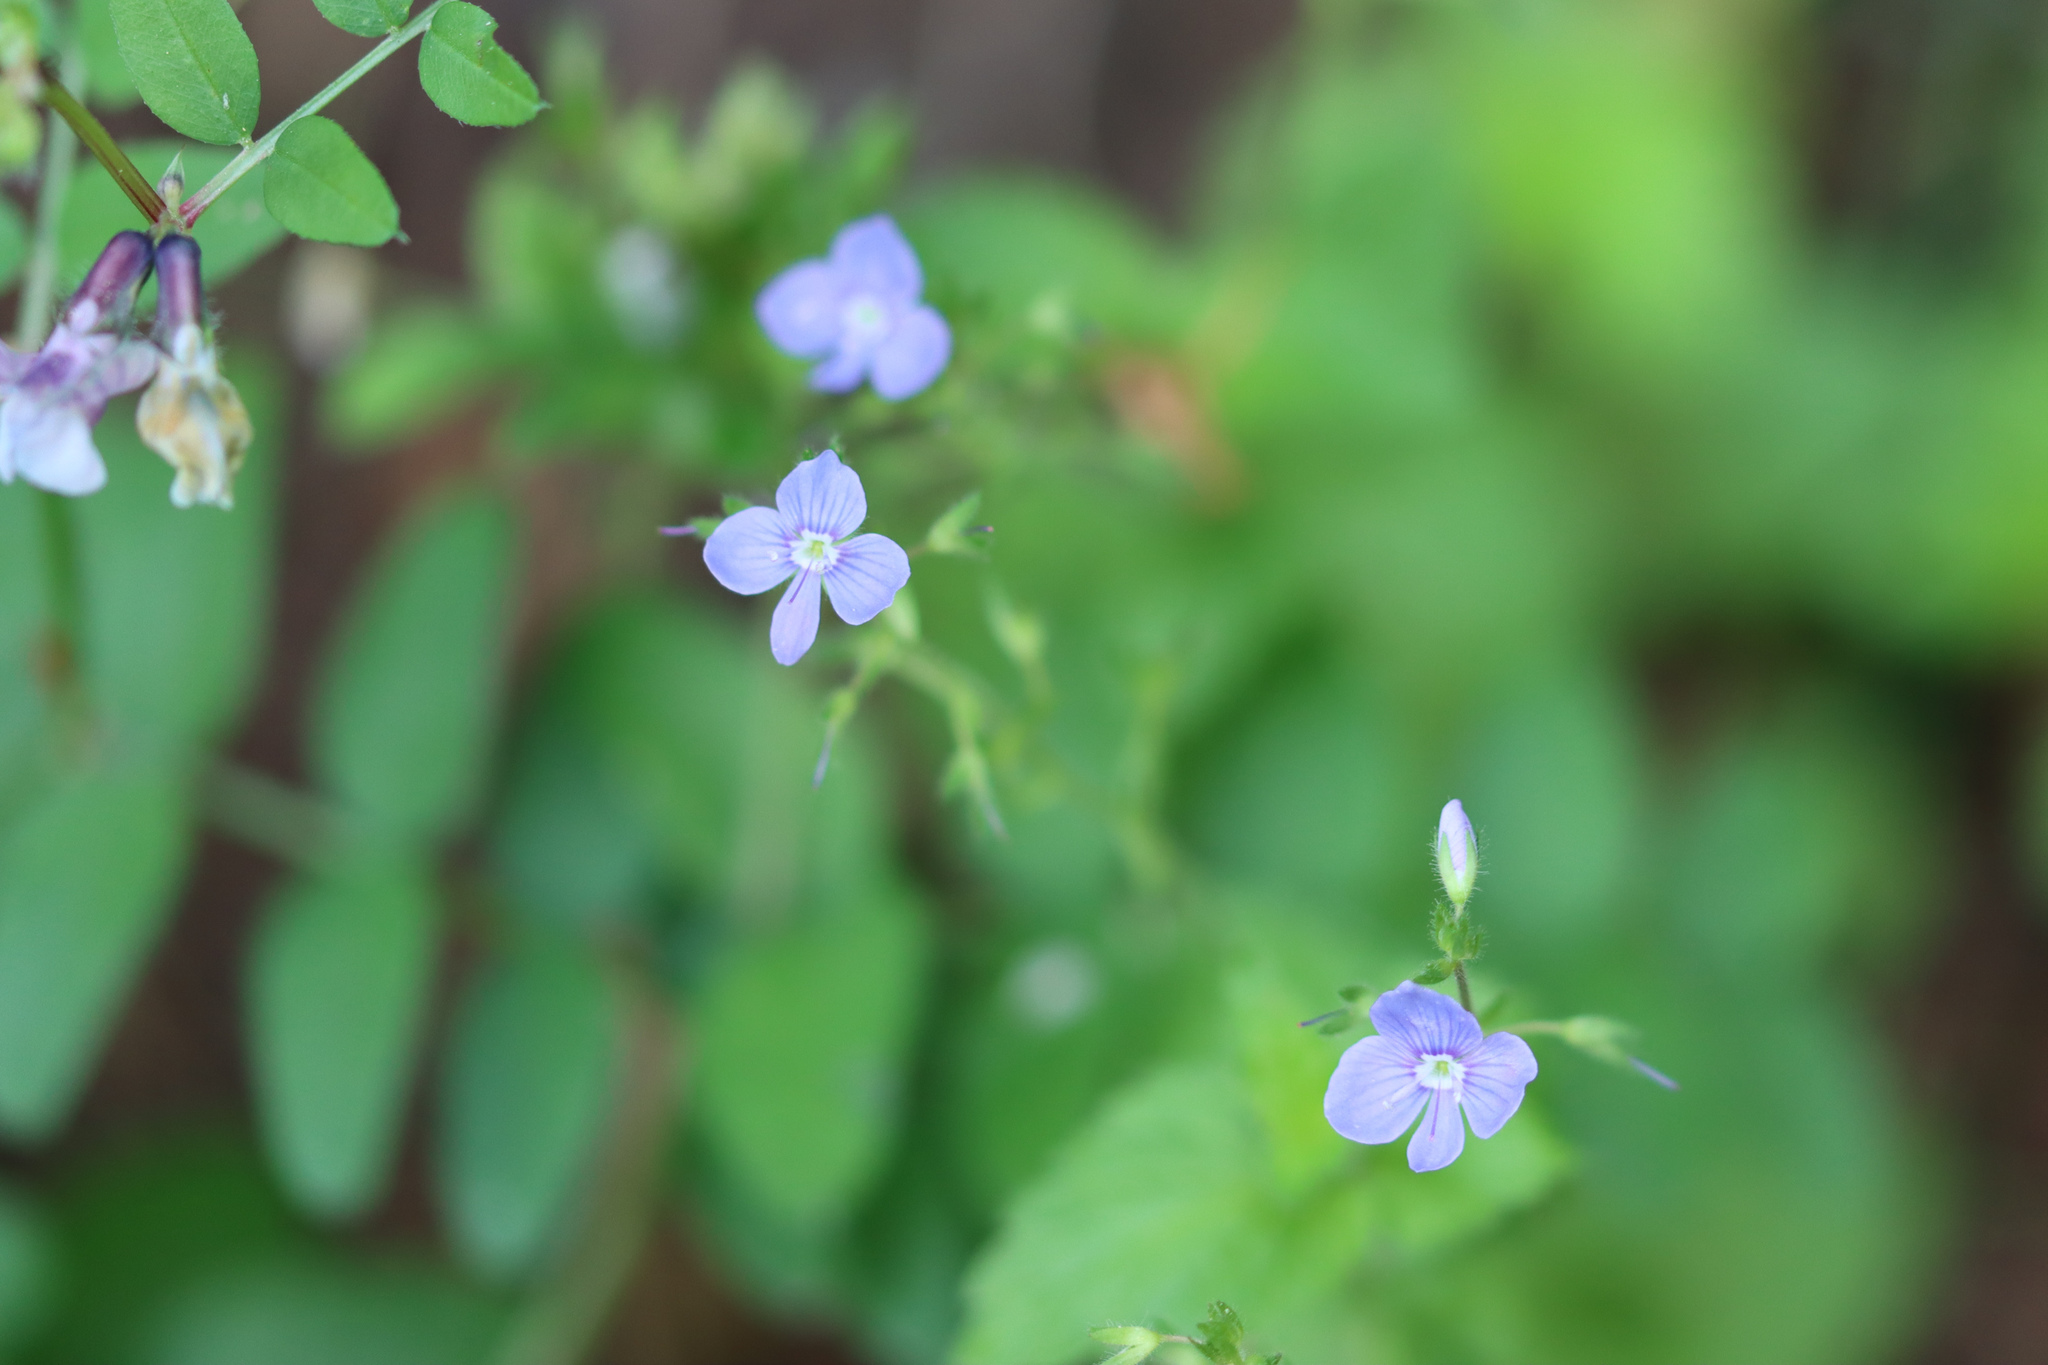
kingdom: Plantae
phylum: Tracheophyta
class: Magnoliopsida
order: Lamiales
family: Plantaginaceae
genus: Veronica
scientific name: Veronica chamaedrys
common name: Germander speedwell
